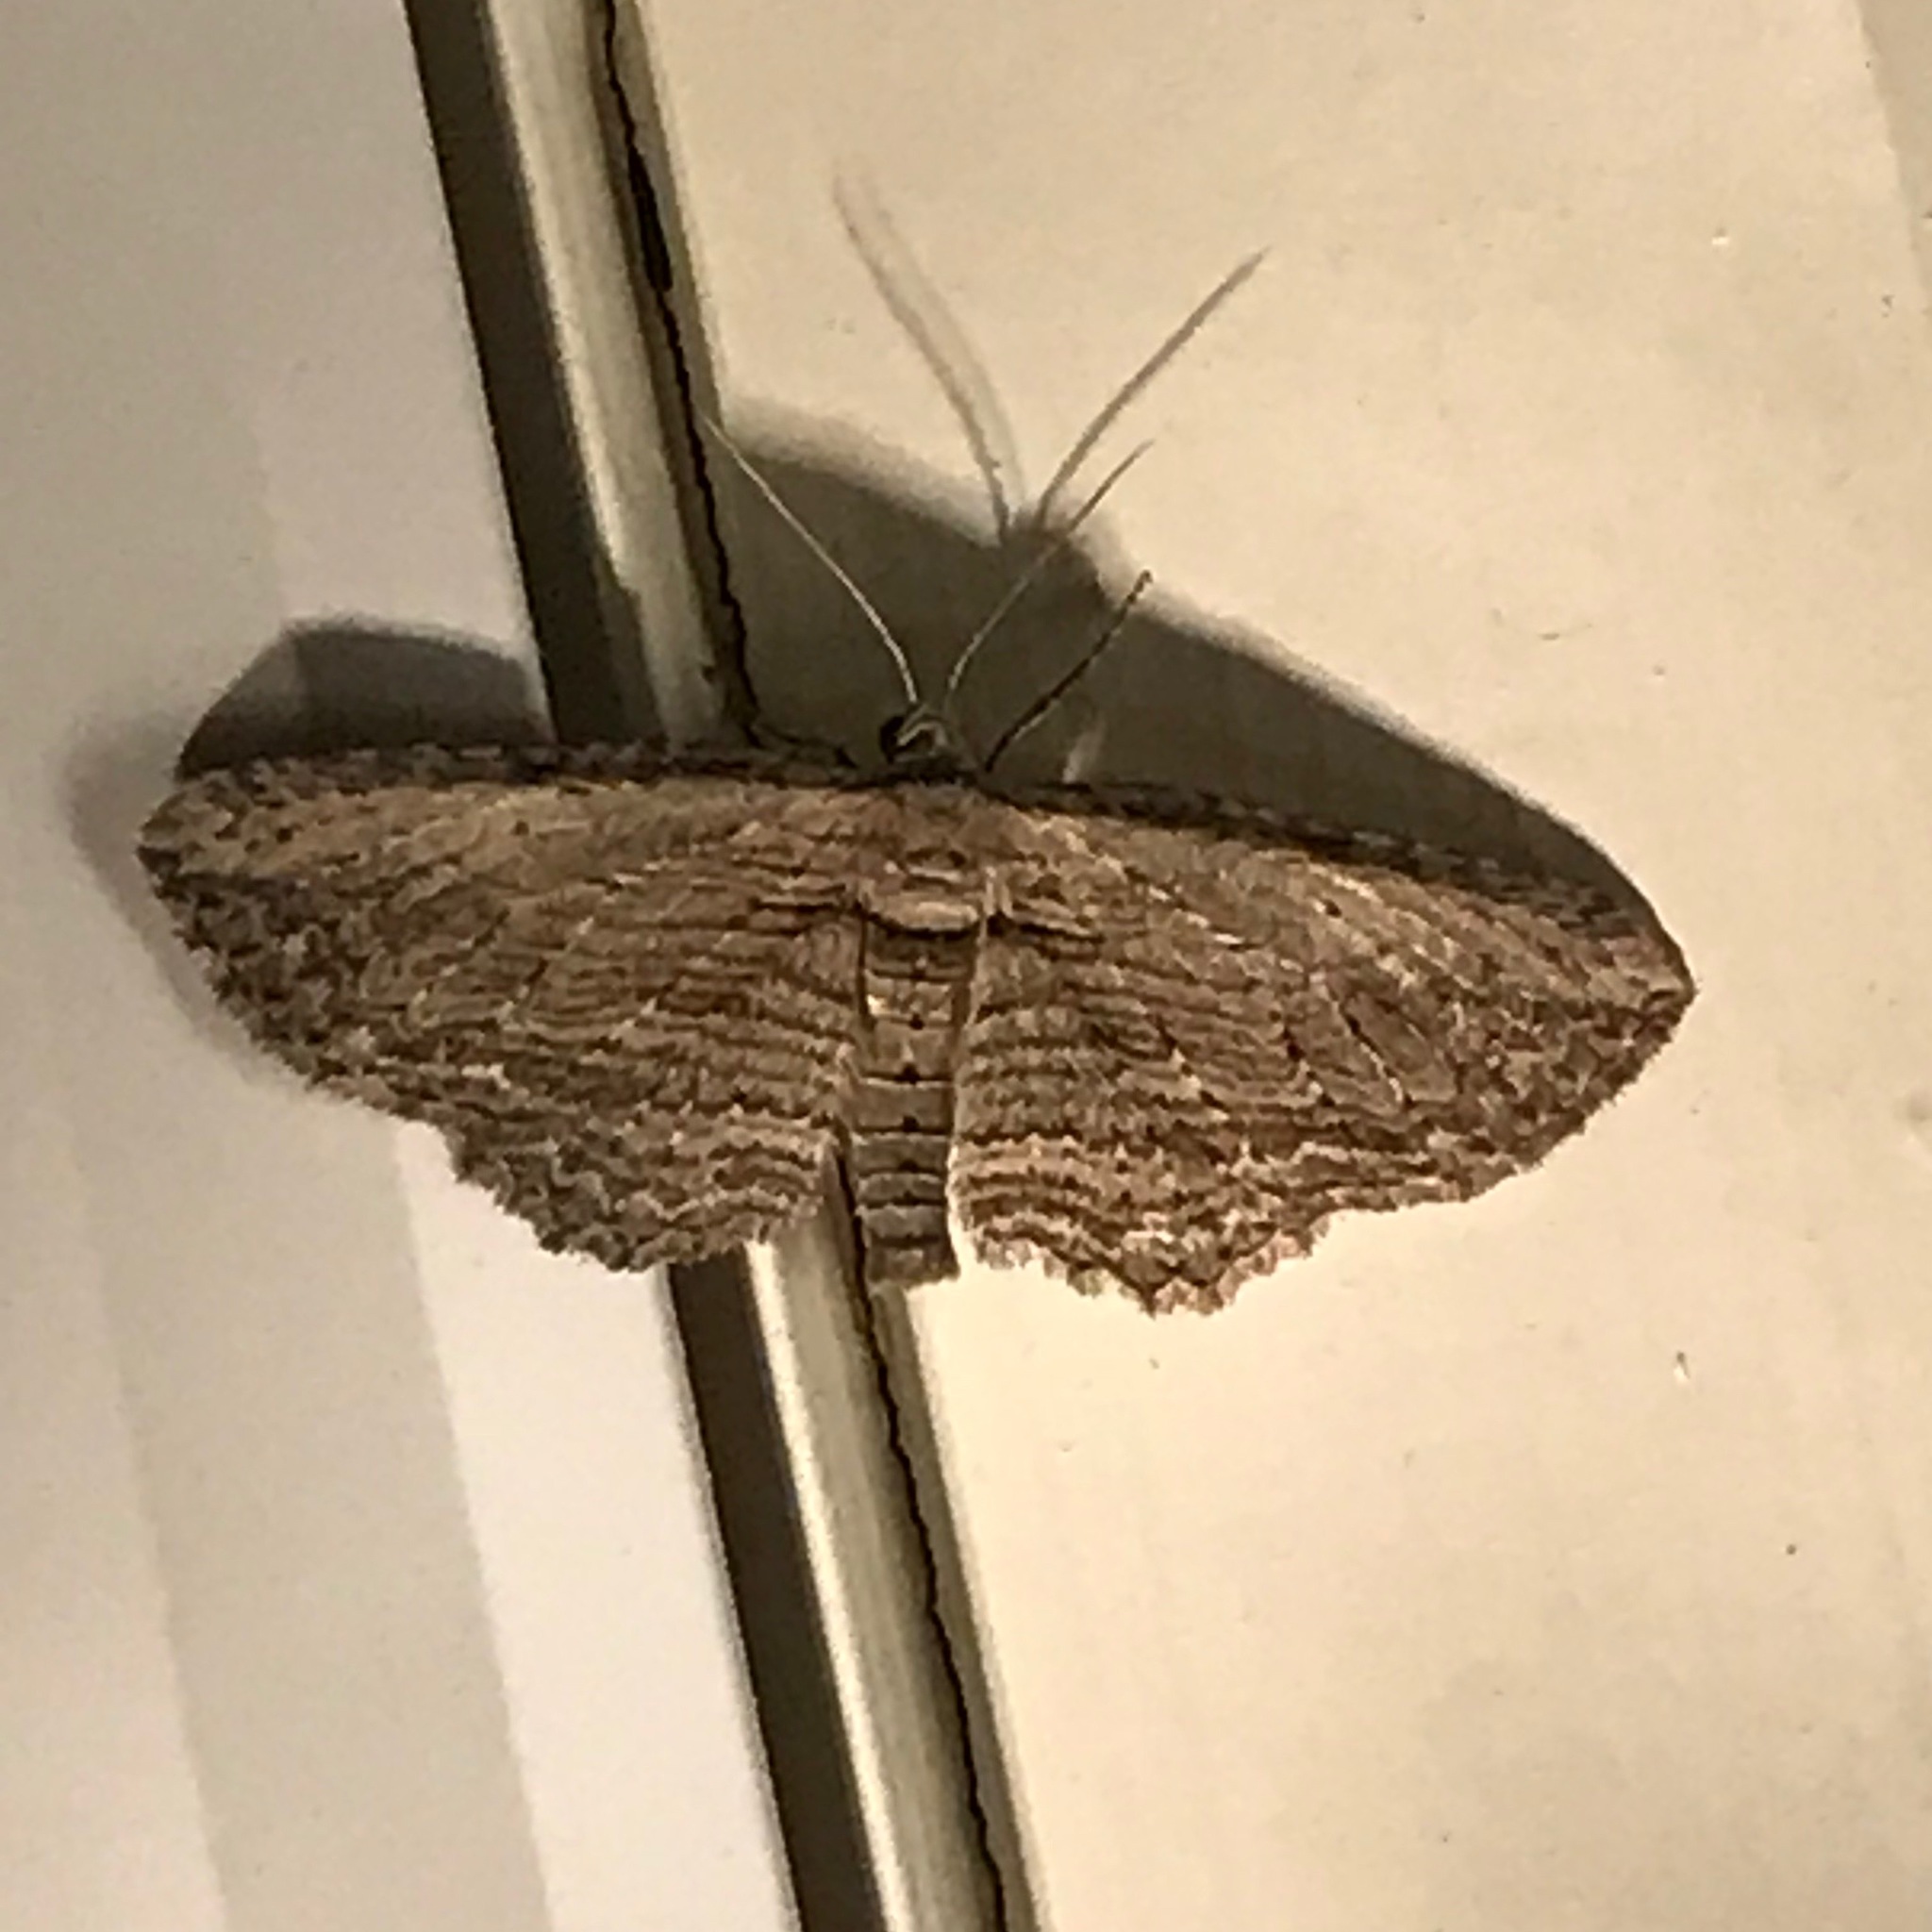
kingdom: Animalia
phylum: Arthropoda
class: Insecta
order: Lepidoptera
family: Geometridae
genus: Horisme
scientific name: Horisme intestinata
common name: Brown bark carpet
